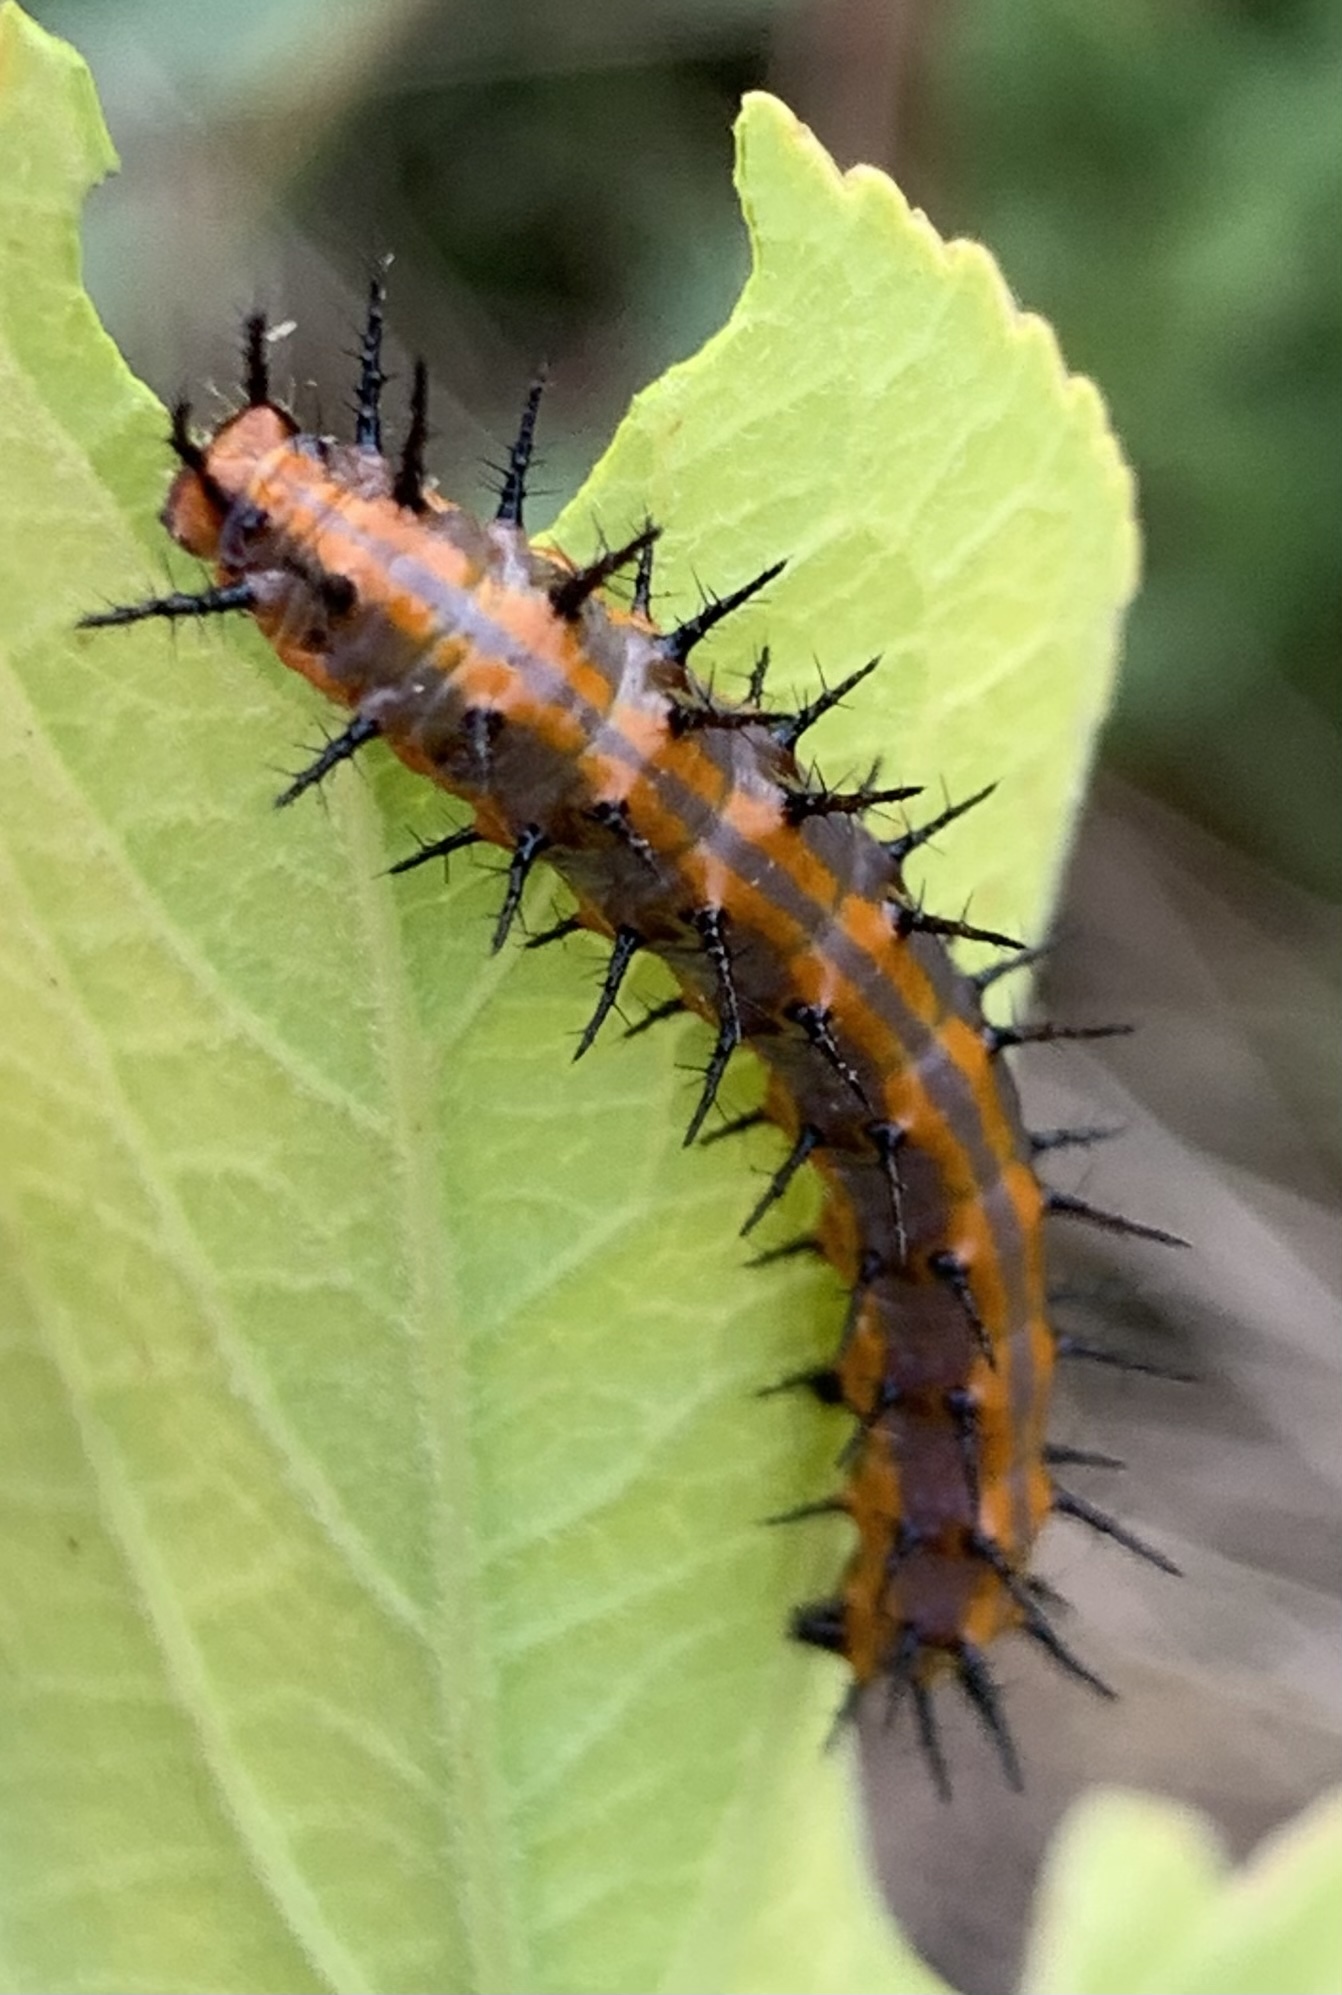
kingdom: Animalia
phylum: Arthropoda
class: Insecta
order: Lepidoptera
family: Nymphalidae
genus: Dione
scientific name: Dione vanillae
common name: Gulf fritillary
